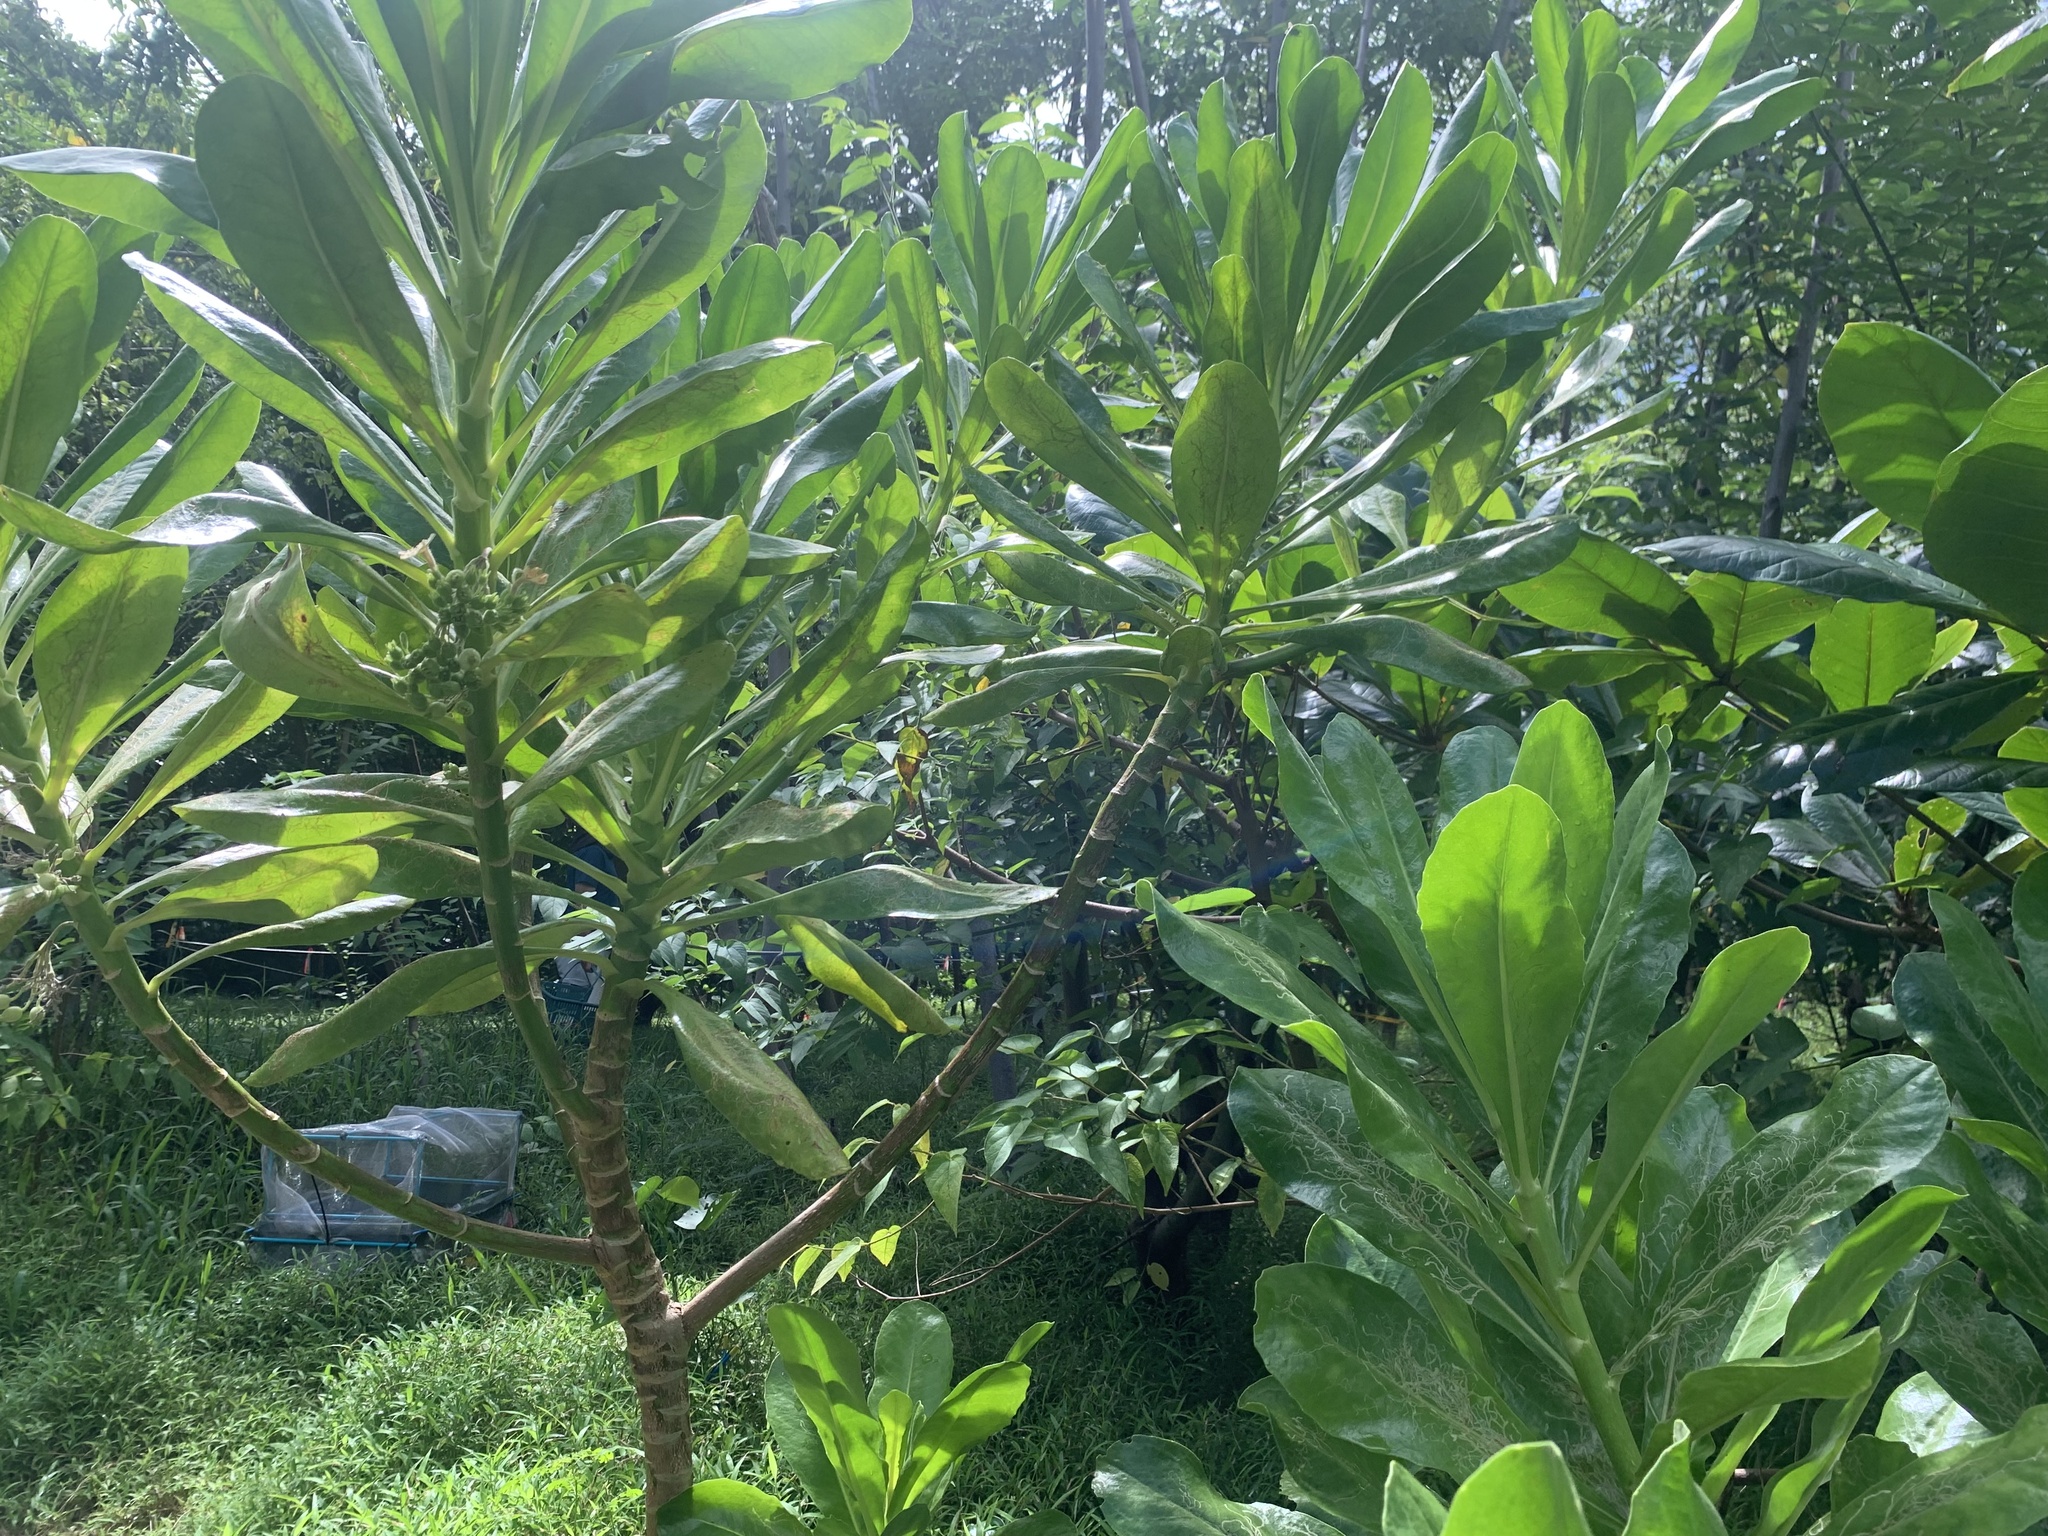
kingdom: Plantae
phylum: Tracheophyta
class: Magnoliopsida
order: Asterales
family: Goodeniaceae
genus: Scaevola
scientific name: Scaevola taccada
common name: Sea lettucetree
